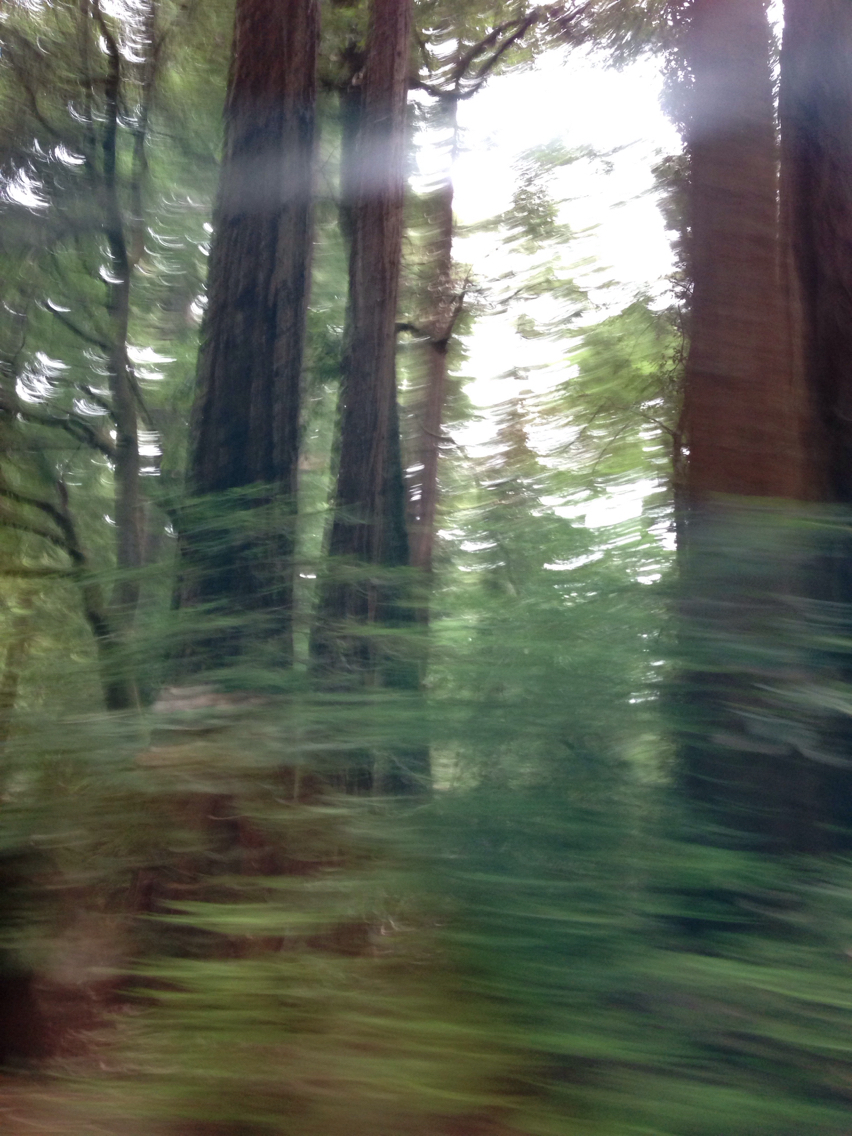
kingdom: Plantae
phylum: Tracheophyta
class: Pinopsida
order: Pinales
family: Cupressaceae
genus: Sequoia
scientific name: Sequoia sempervirens
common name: Coast redwood
